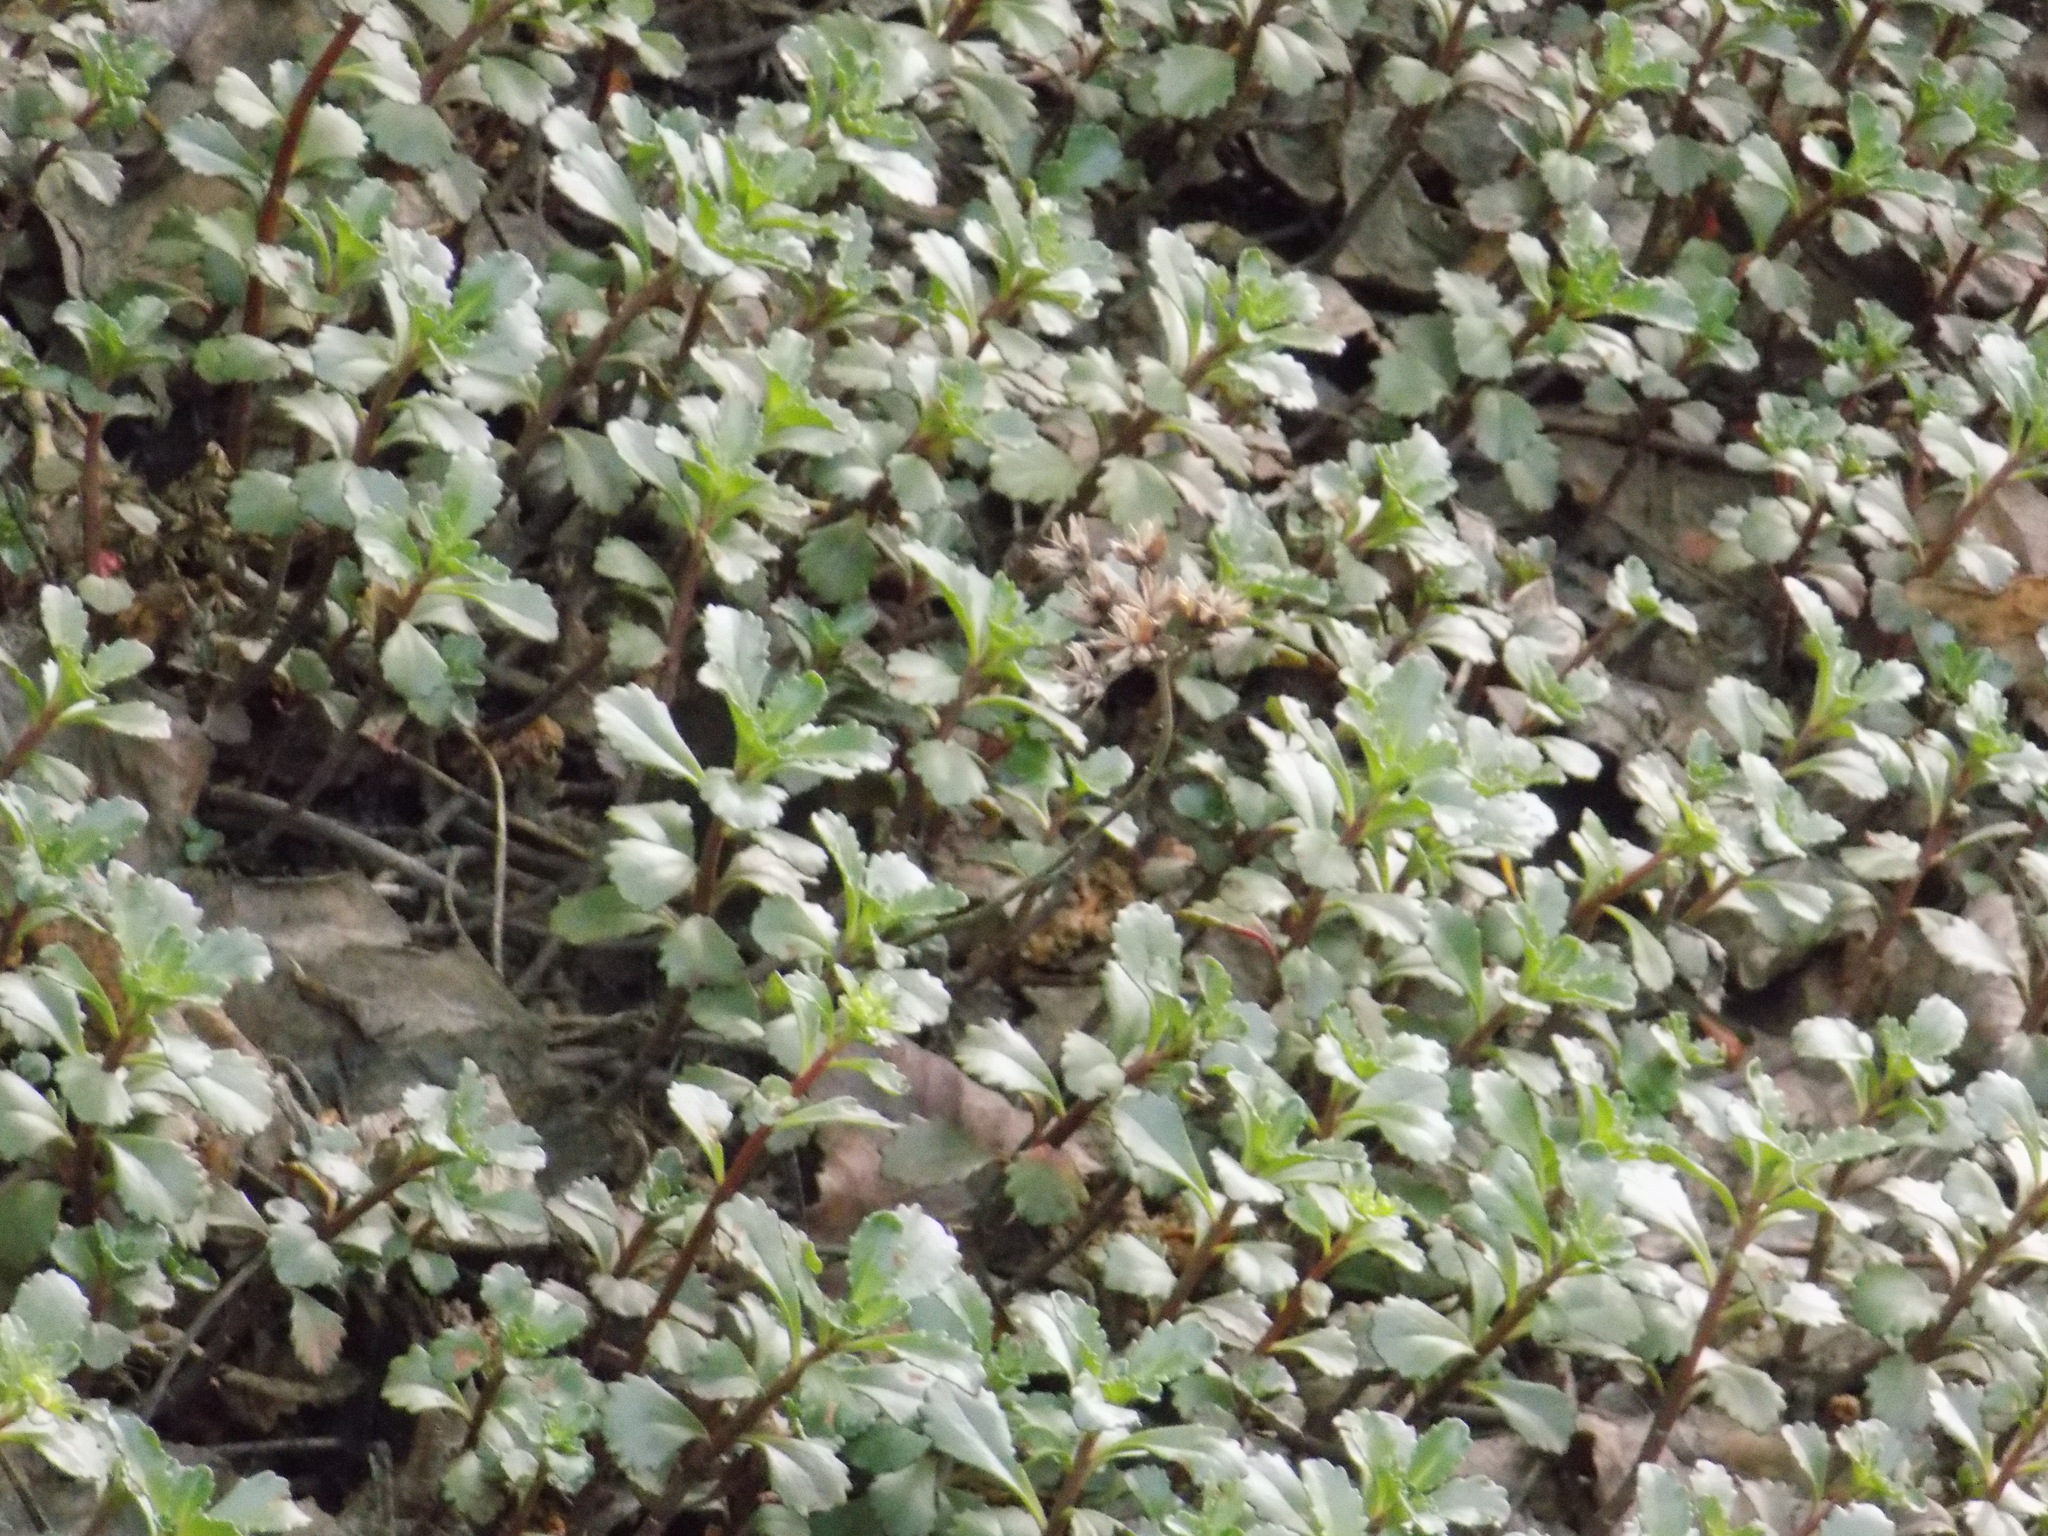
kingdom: Plantae
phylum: Tracheophyta
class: Magnoliopsida
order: Saxifragales
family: Crassulaceae
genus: Phedimus
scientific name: Phedimus hybridus
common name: Hybrid stonecrop
